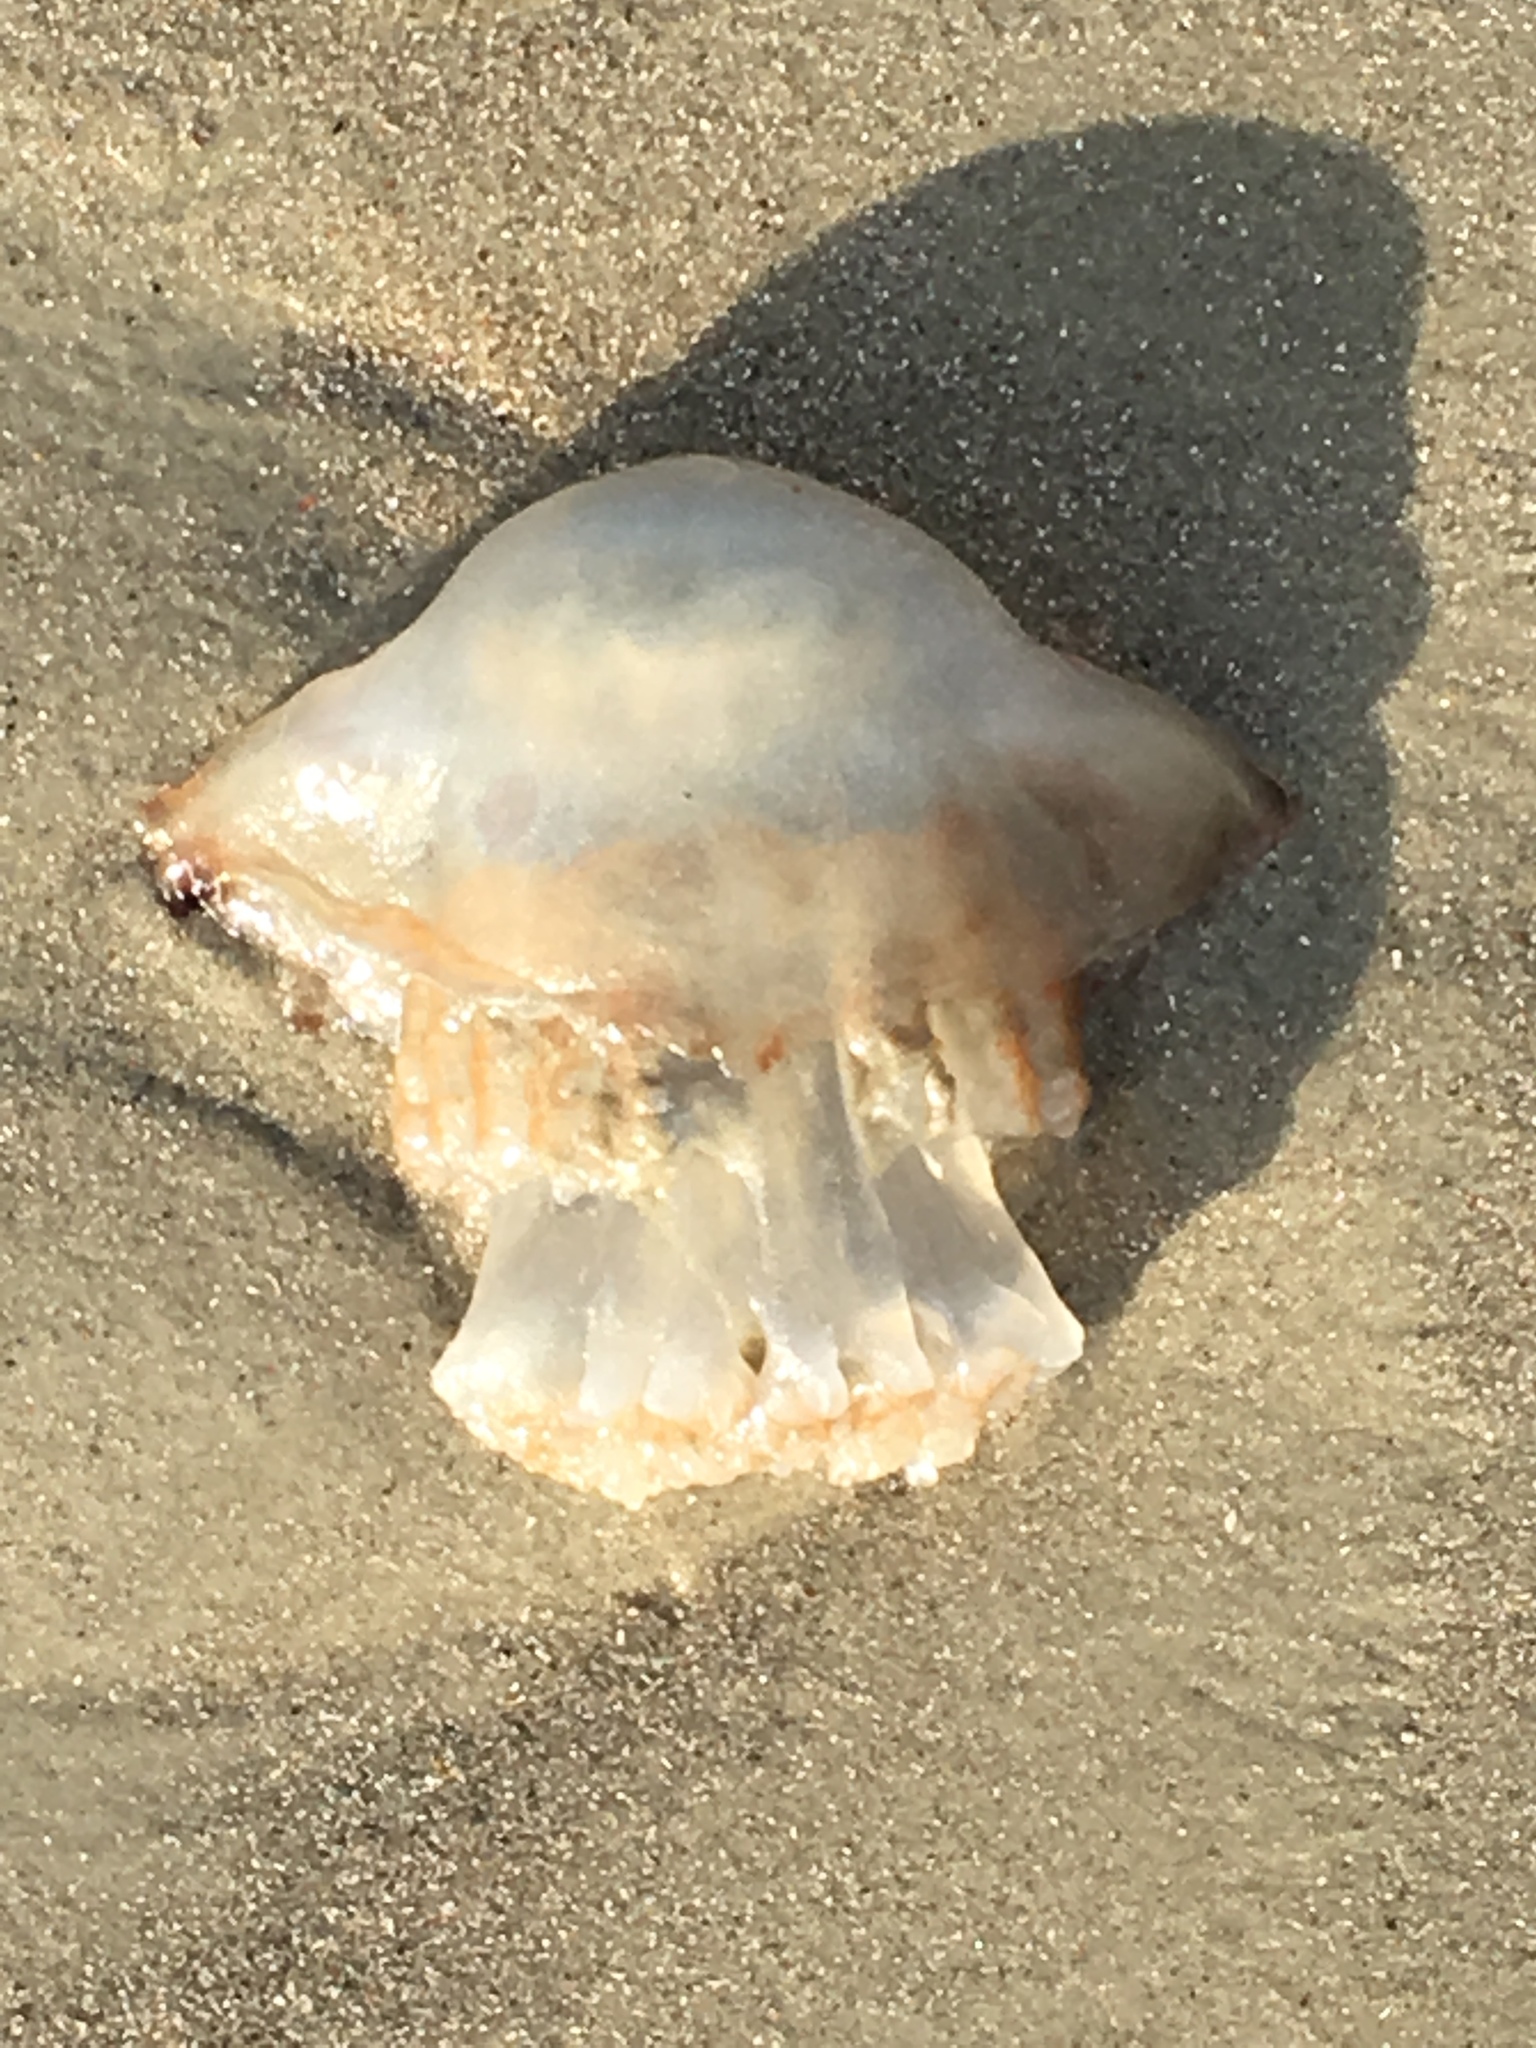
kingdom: Animalia
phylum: Cnidaria
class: Scyphozoa
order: Rhizostomeae
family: Stomolophidae
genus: Stomolophus
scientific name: Stomolophus meleagris
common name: Cabbagehead
